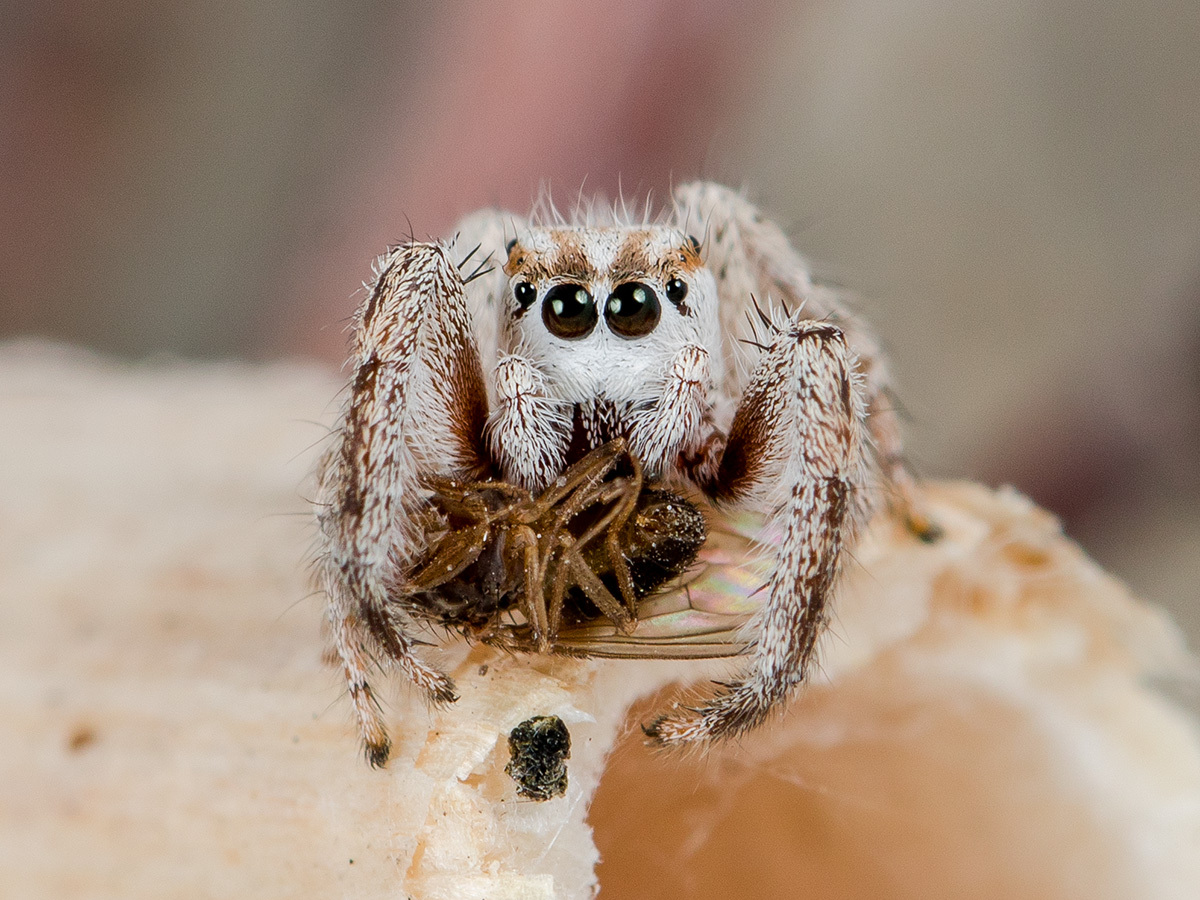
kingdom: Animalia
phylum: Arthropoda
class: Arachnida
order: Araneae
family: Salticidae
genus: Pellenes
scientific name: Pellenes dilutus
